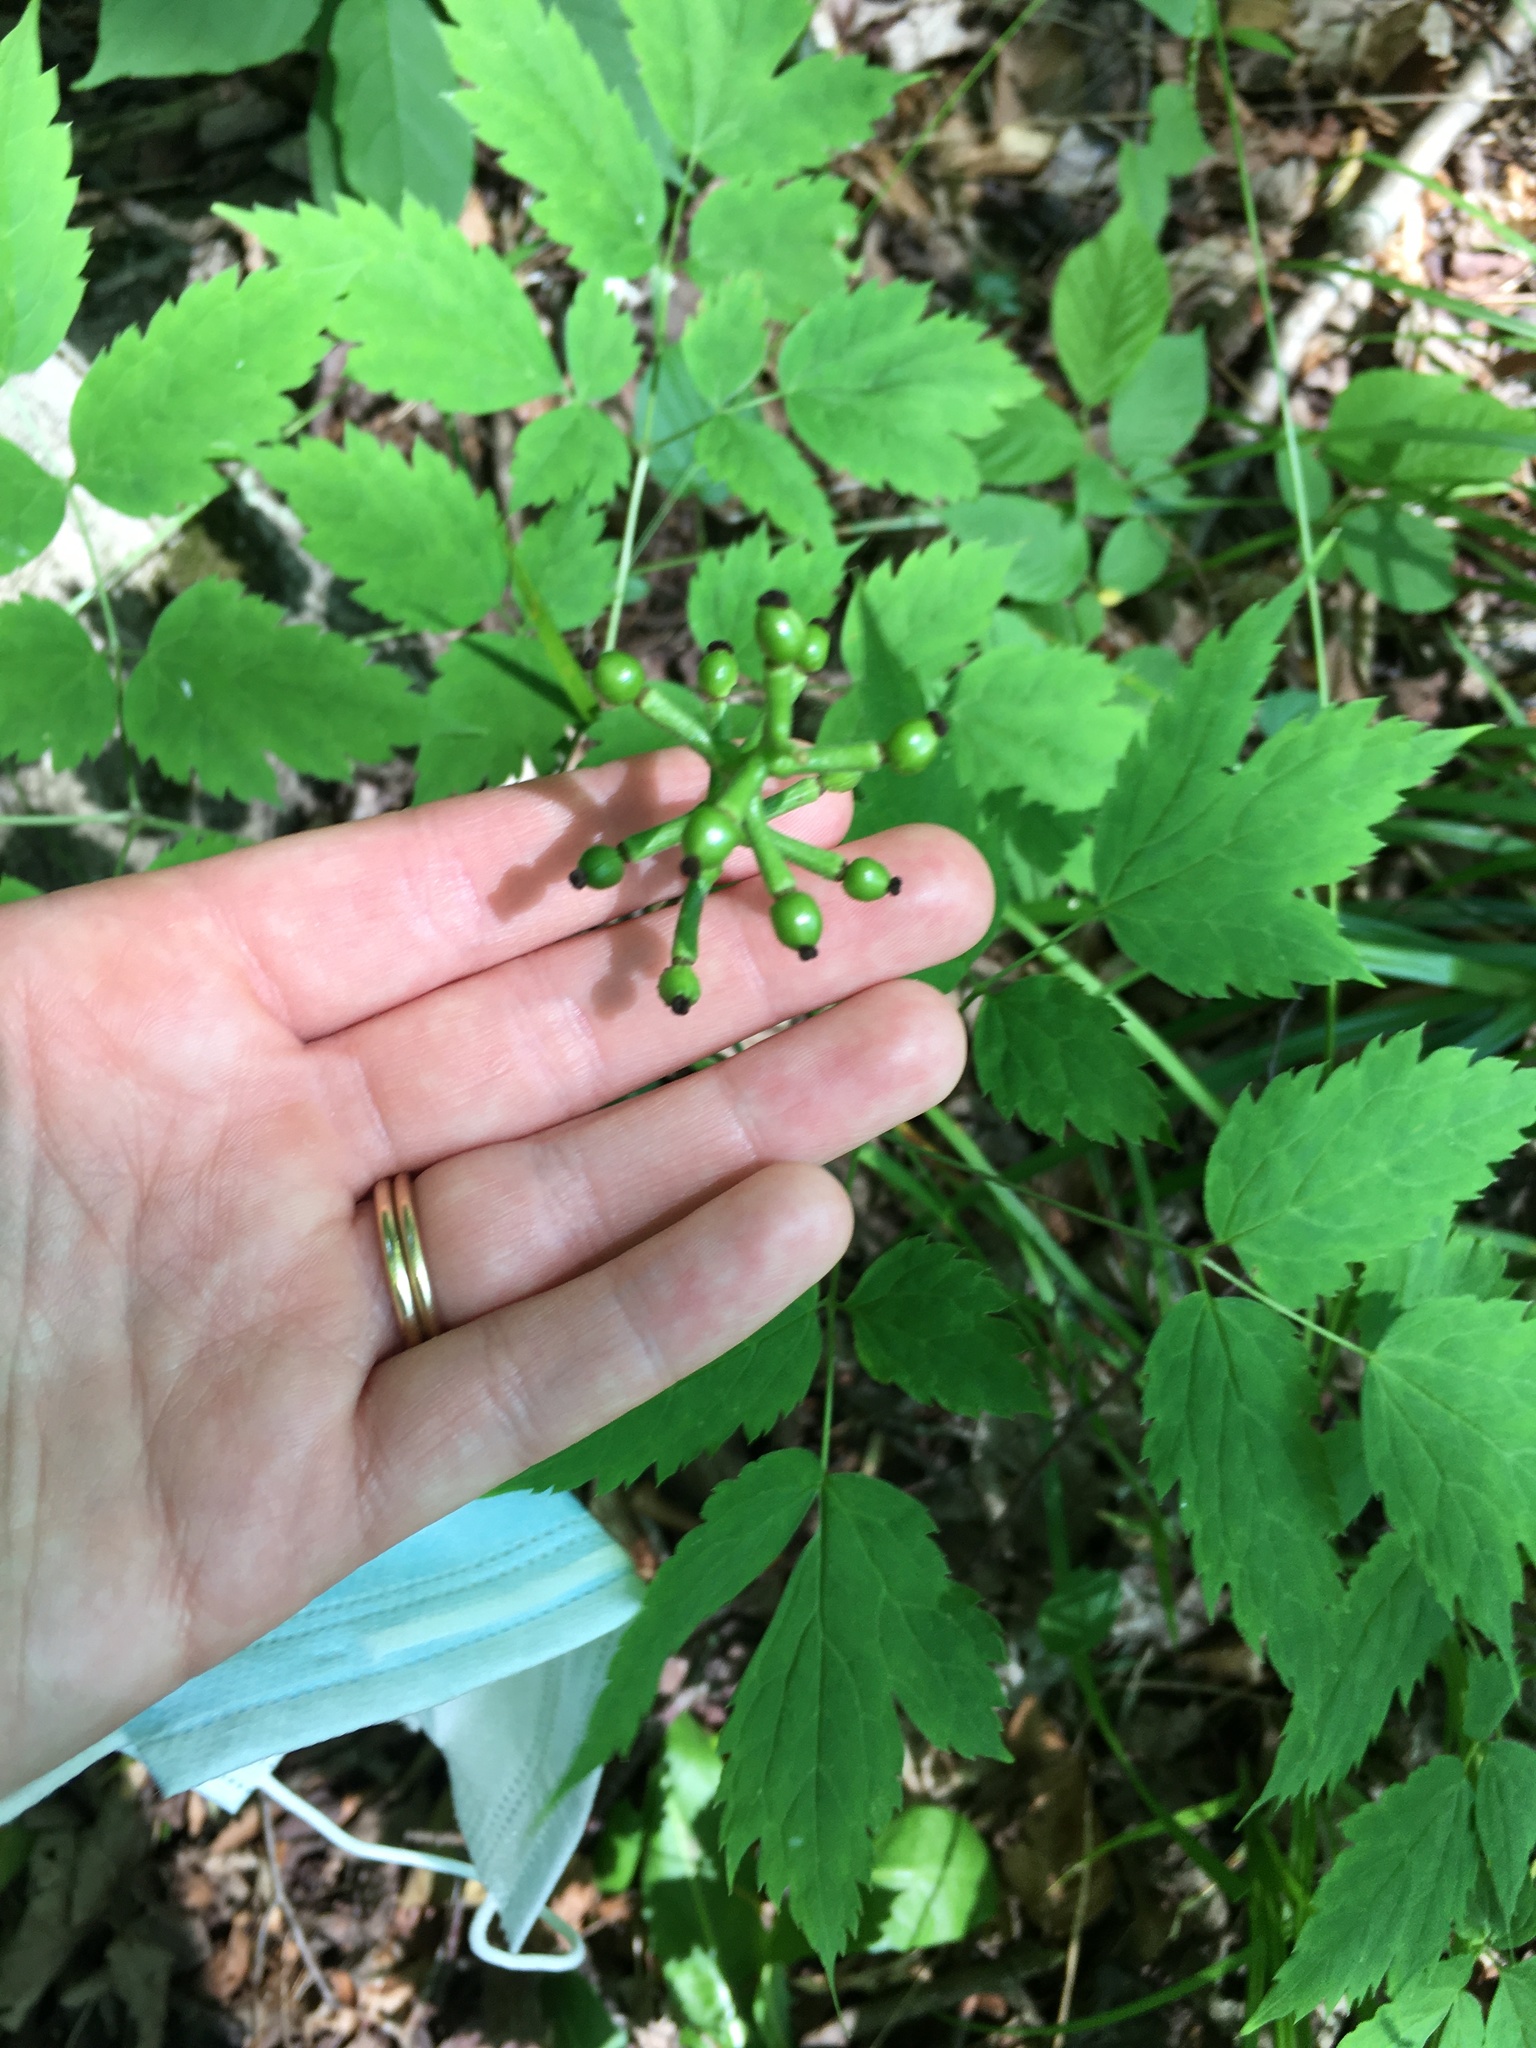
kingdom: Plantae
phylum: Tracheophyta
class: Magnoliopsida
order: Ranunculales
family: Ranunculaceae
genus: Actaea
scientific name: Actaea pachypoda
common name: Doll's-eyes
